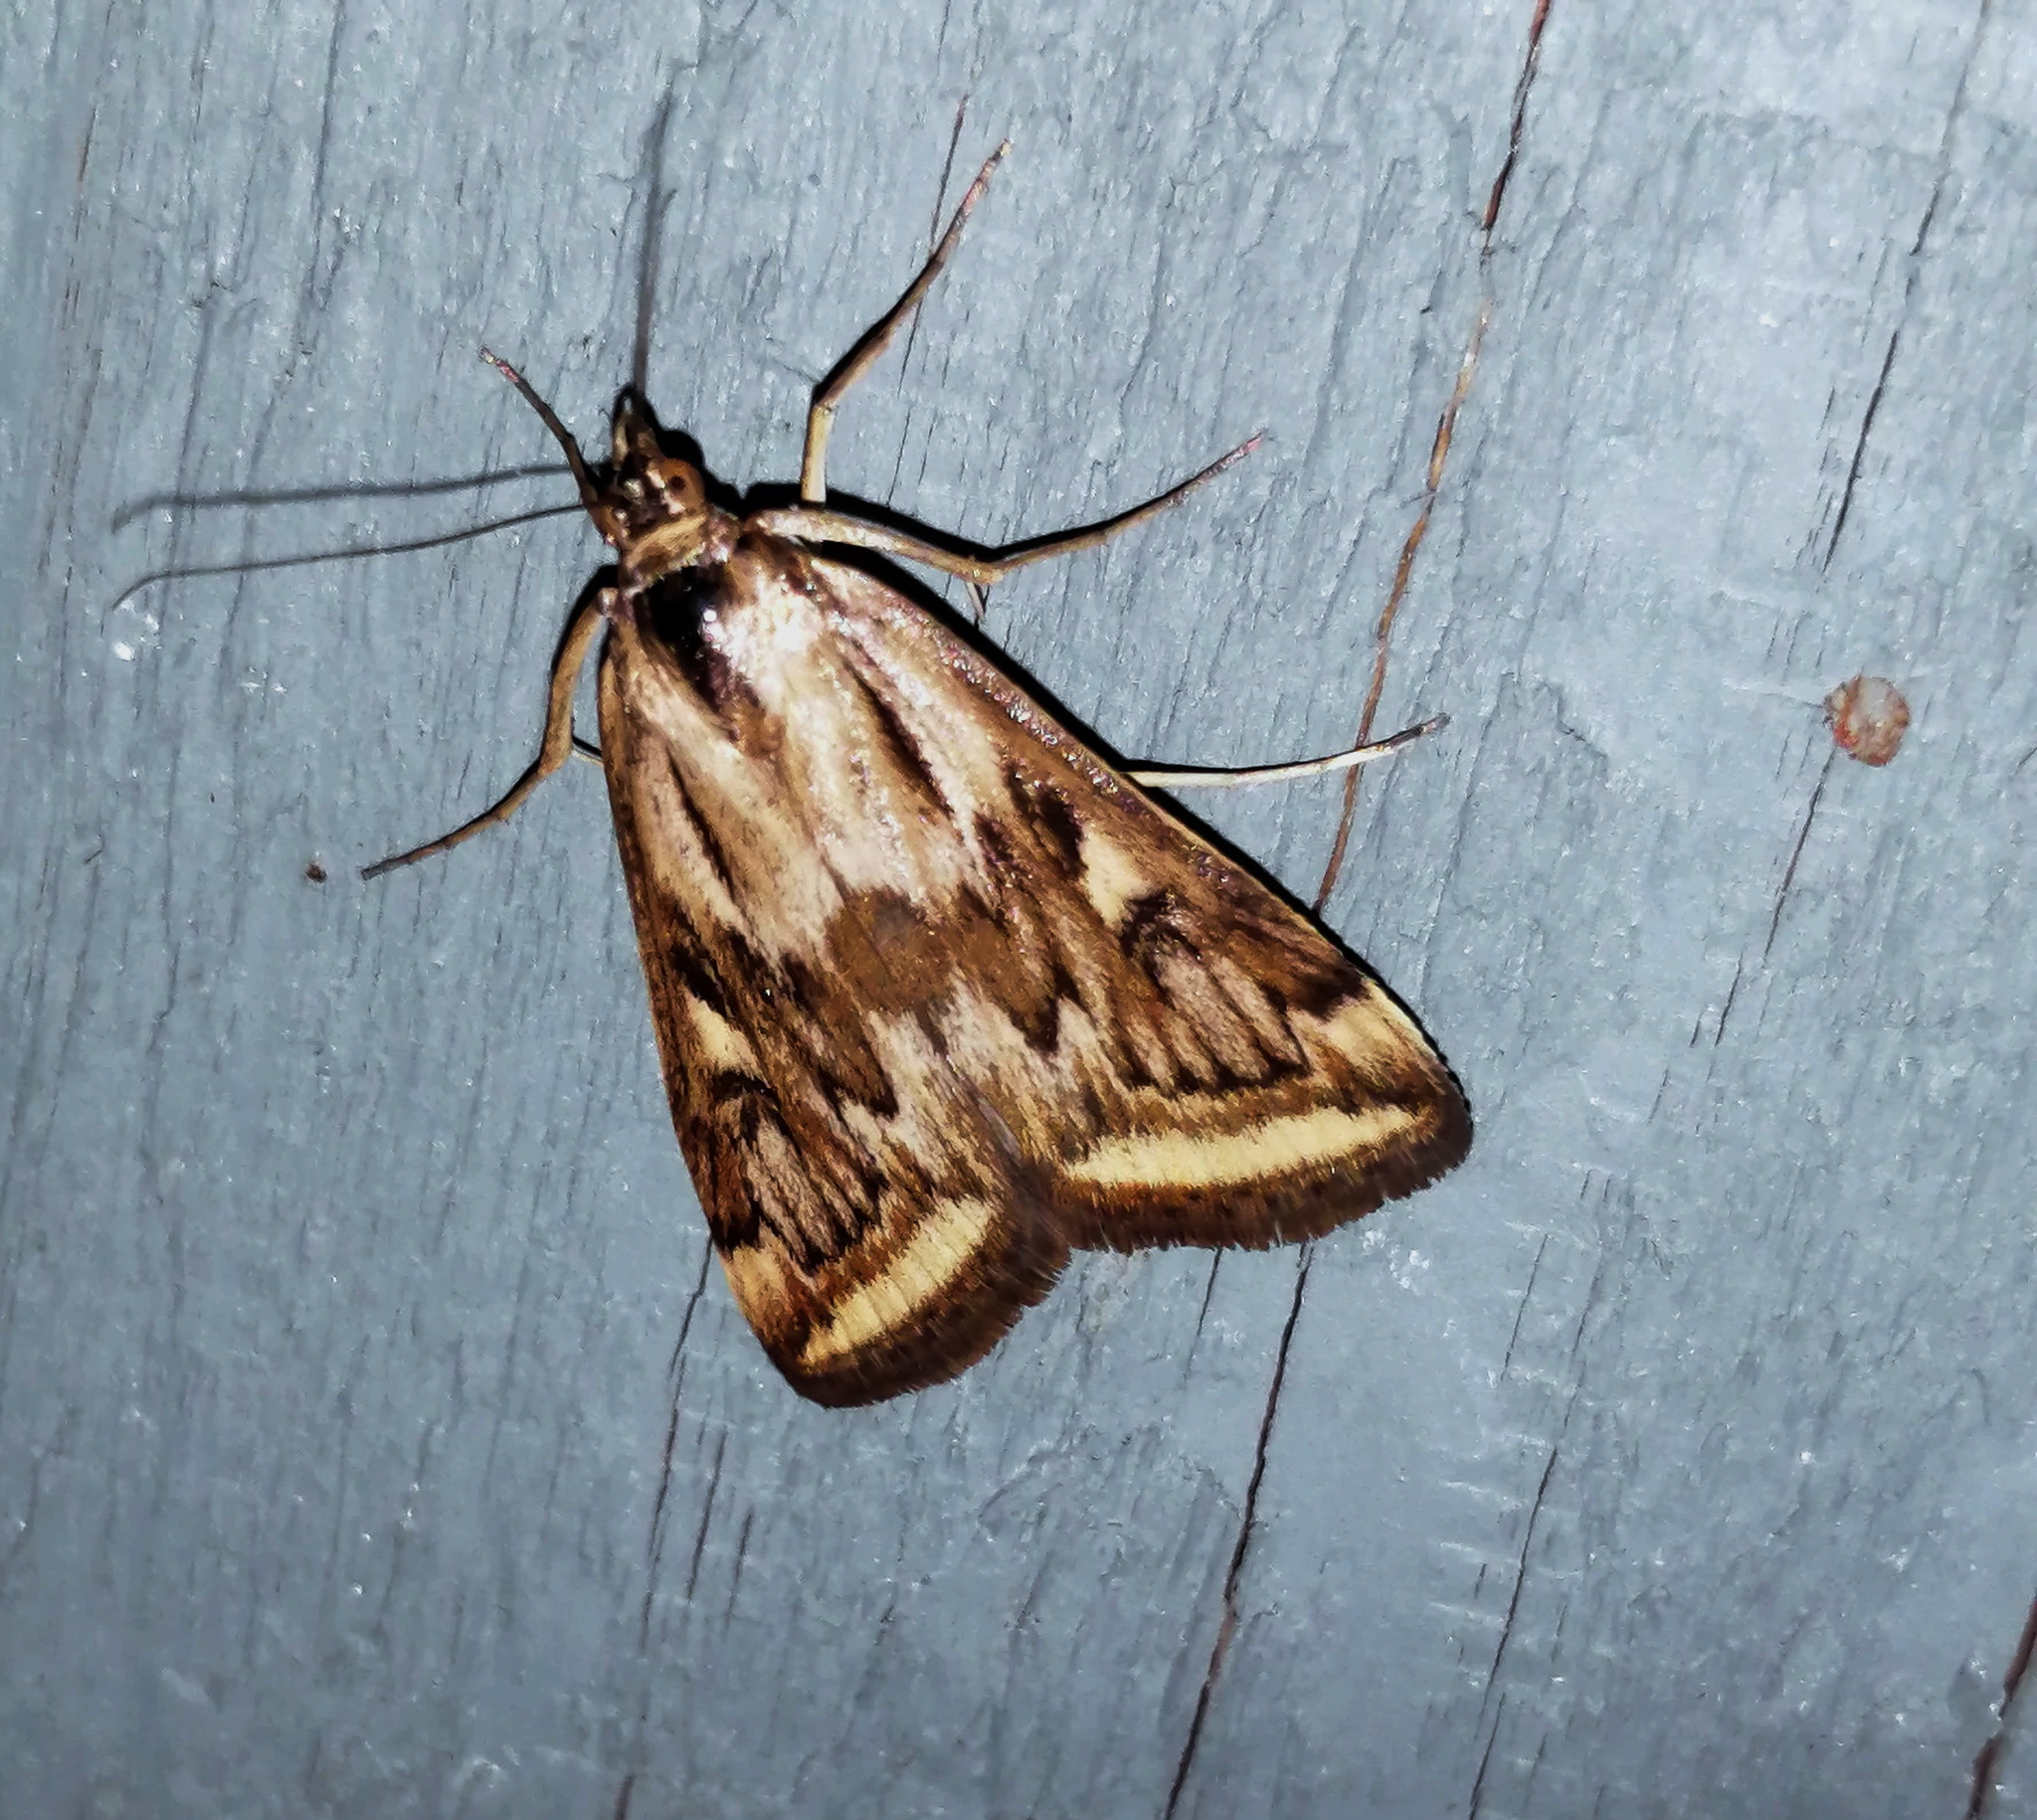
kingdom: Animalia
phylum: Arthropoda
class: Insecta
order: Lepidoptera
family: Crambidae
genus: Loxostege
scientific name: Loxostege cereralis
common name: Alfalfa webworm moth
